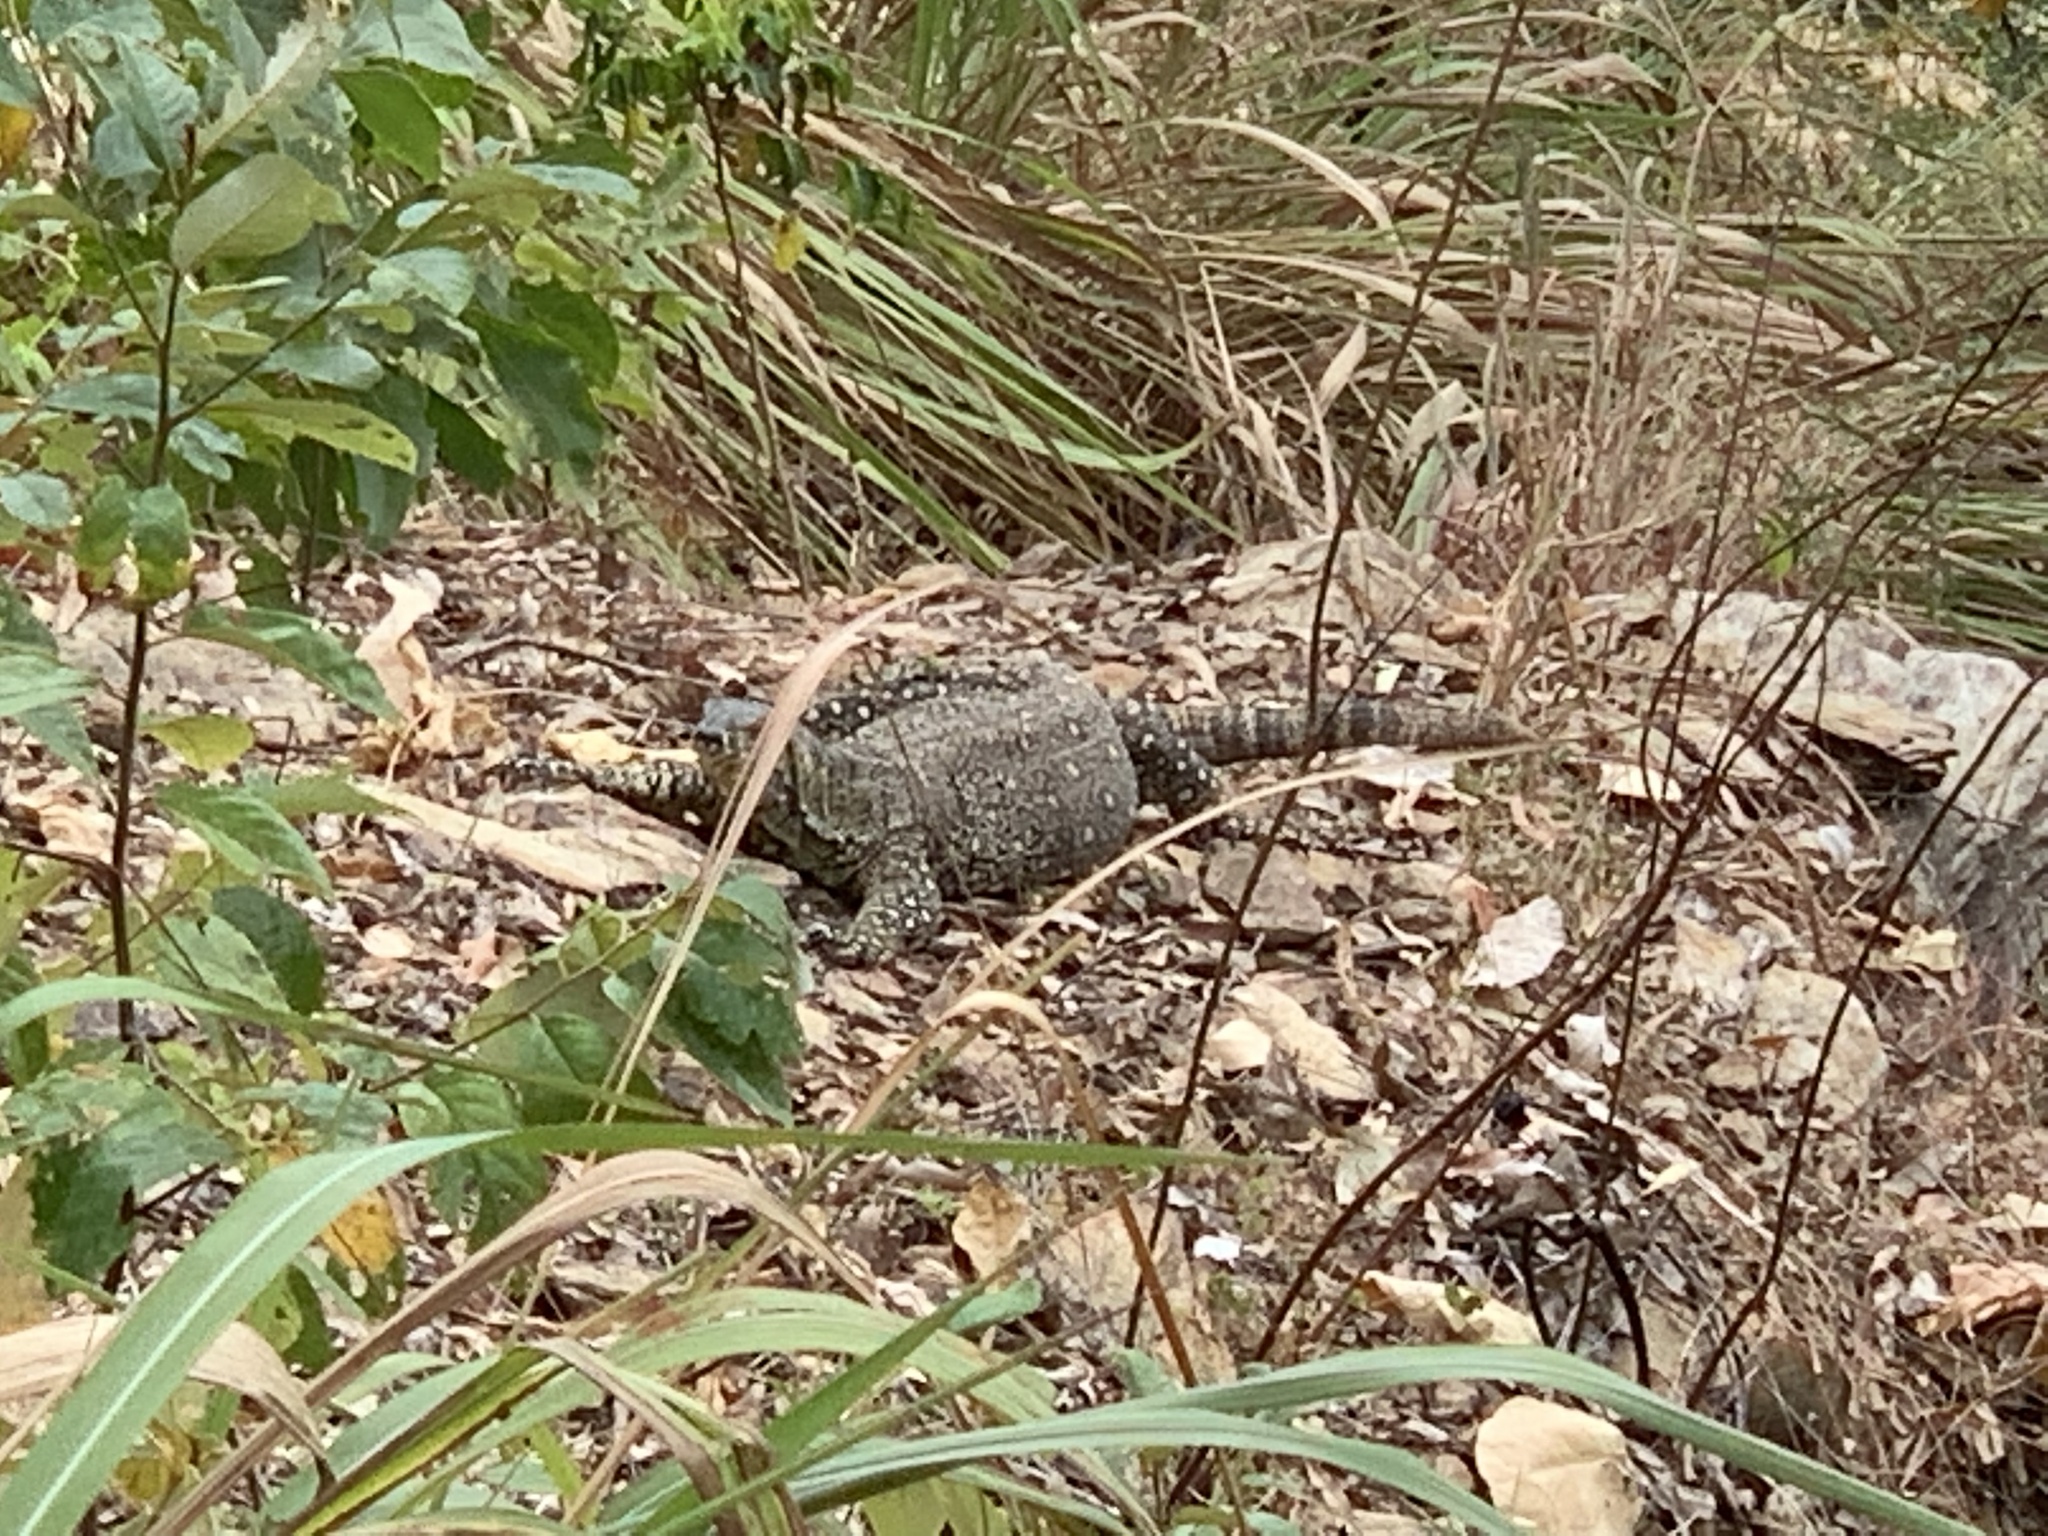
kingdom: Animalia
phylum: Chordata
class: Squamata
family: Varanidae
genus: Varanus
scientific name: Varanus varius
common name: Lace monitor
